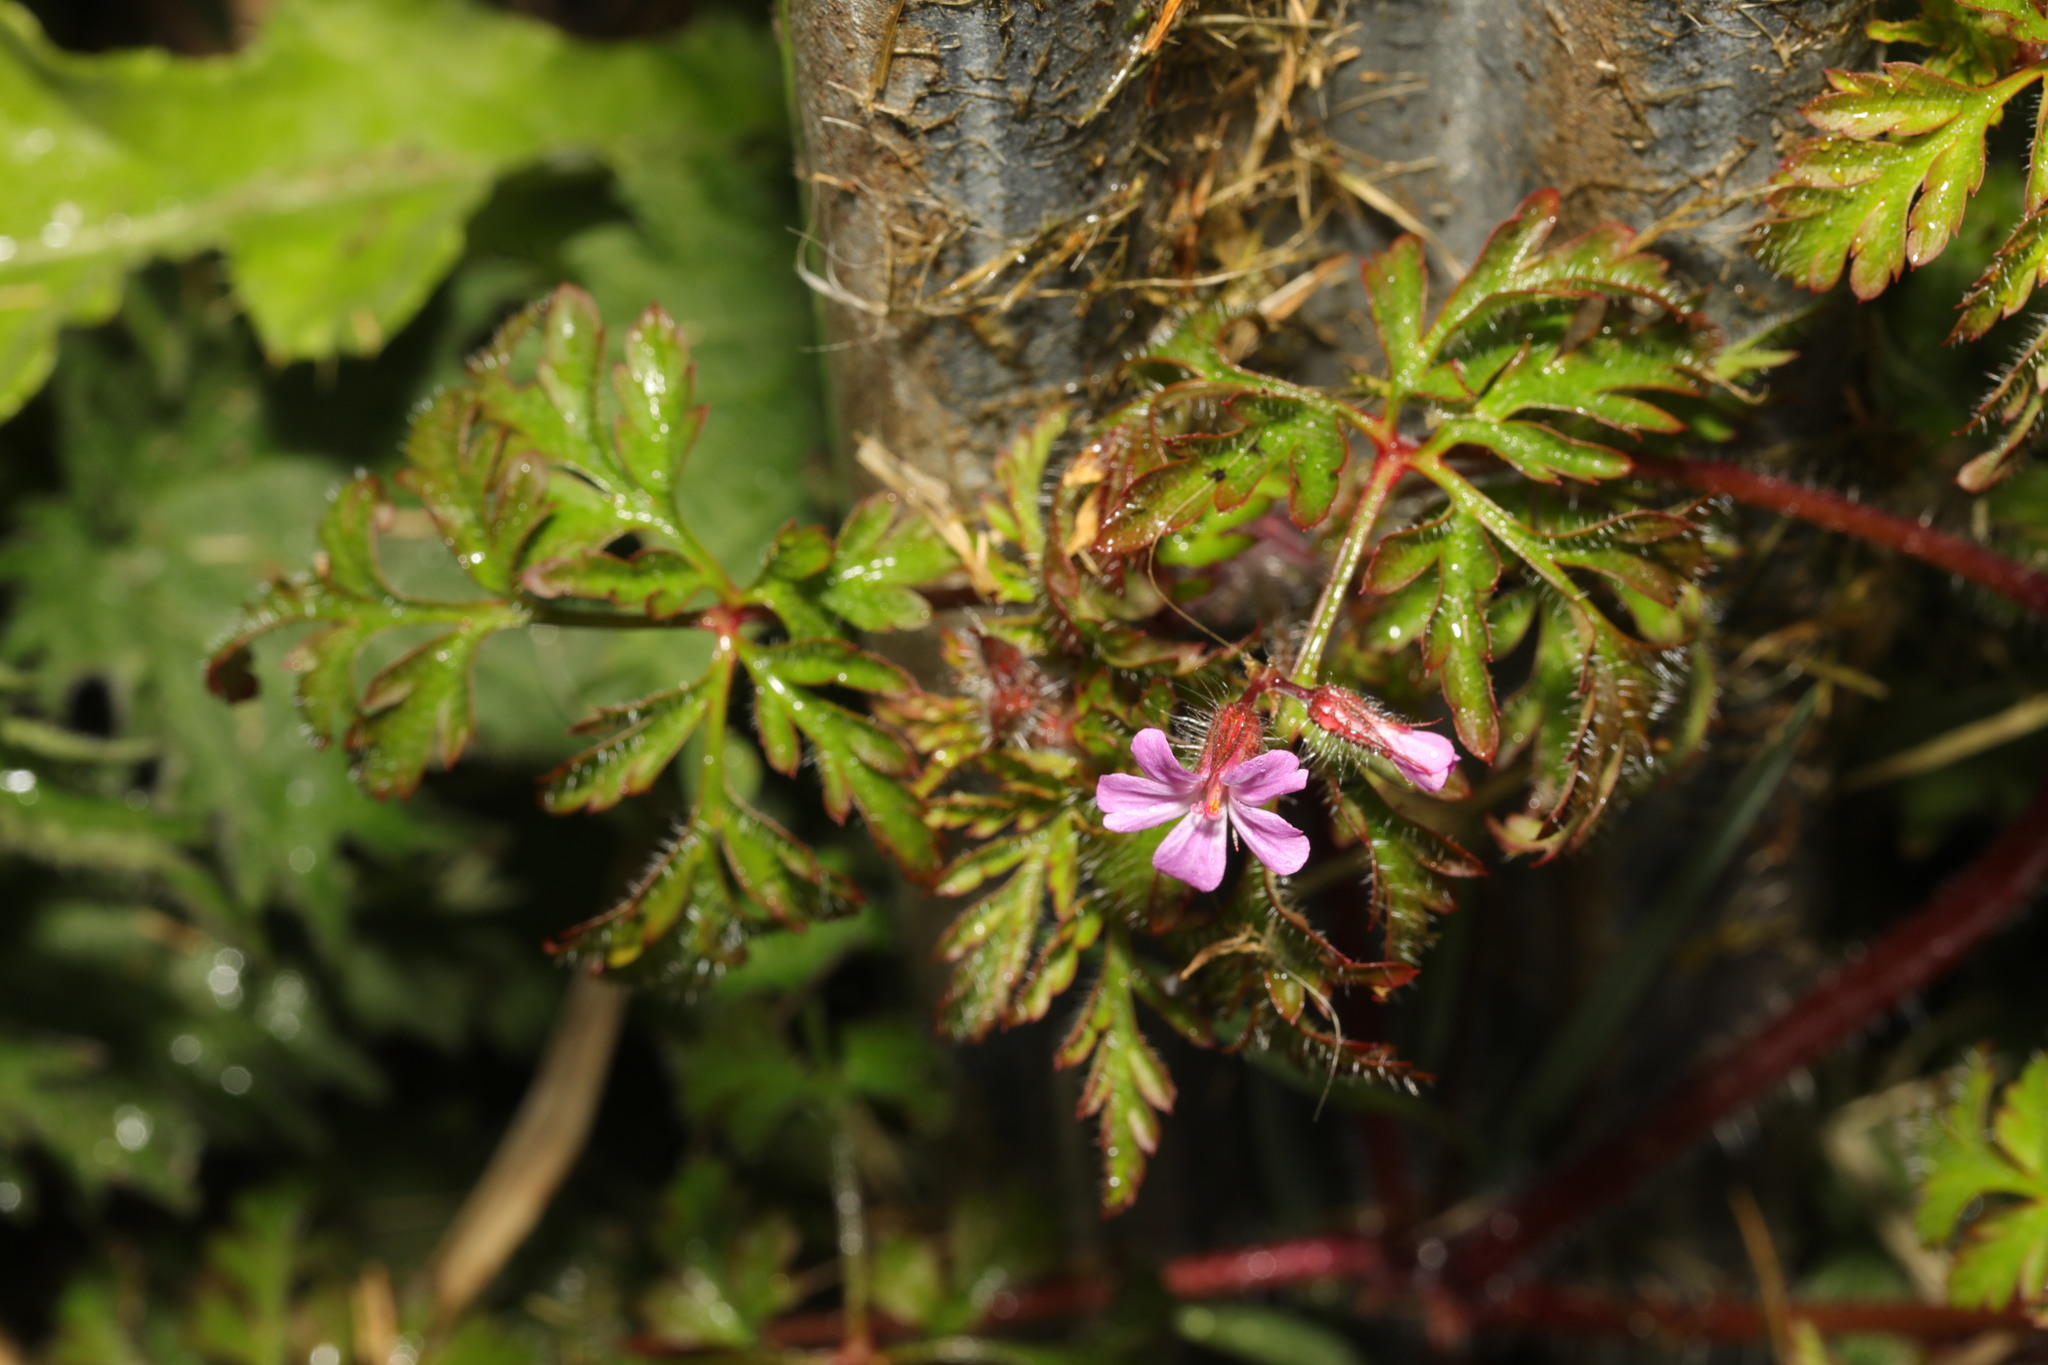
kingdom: Plantae
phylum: Tracheophyta
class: Magnoliopsida
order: Geraniales
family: Geraniaceae
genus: Geranium
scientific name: Geranium robertianum
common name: Herb-robert
